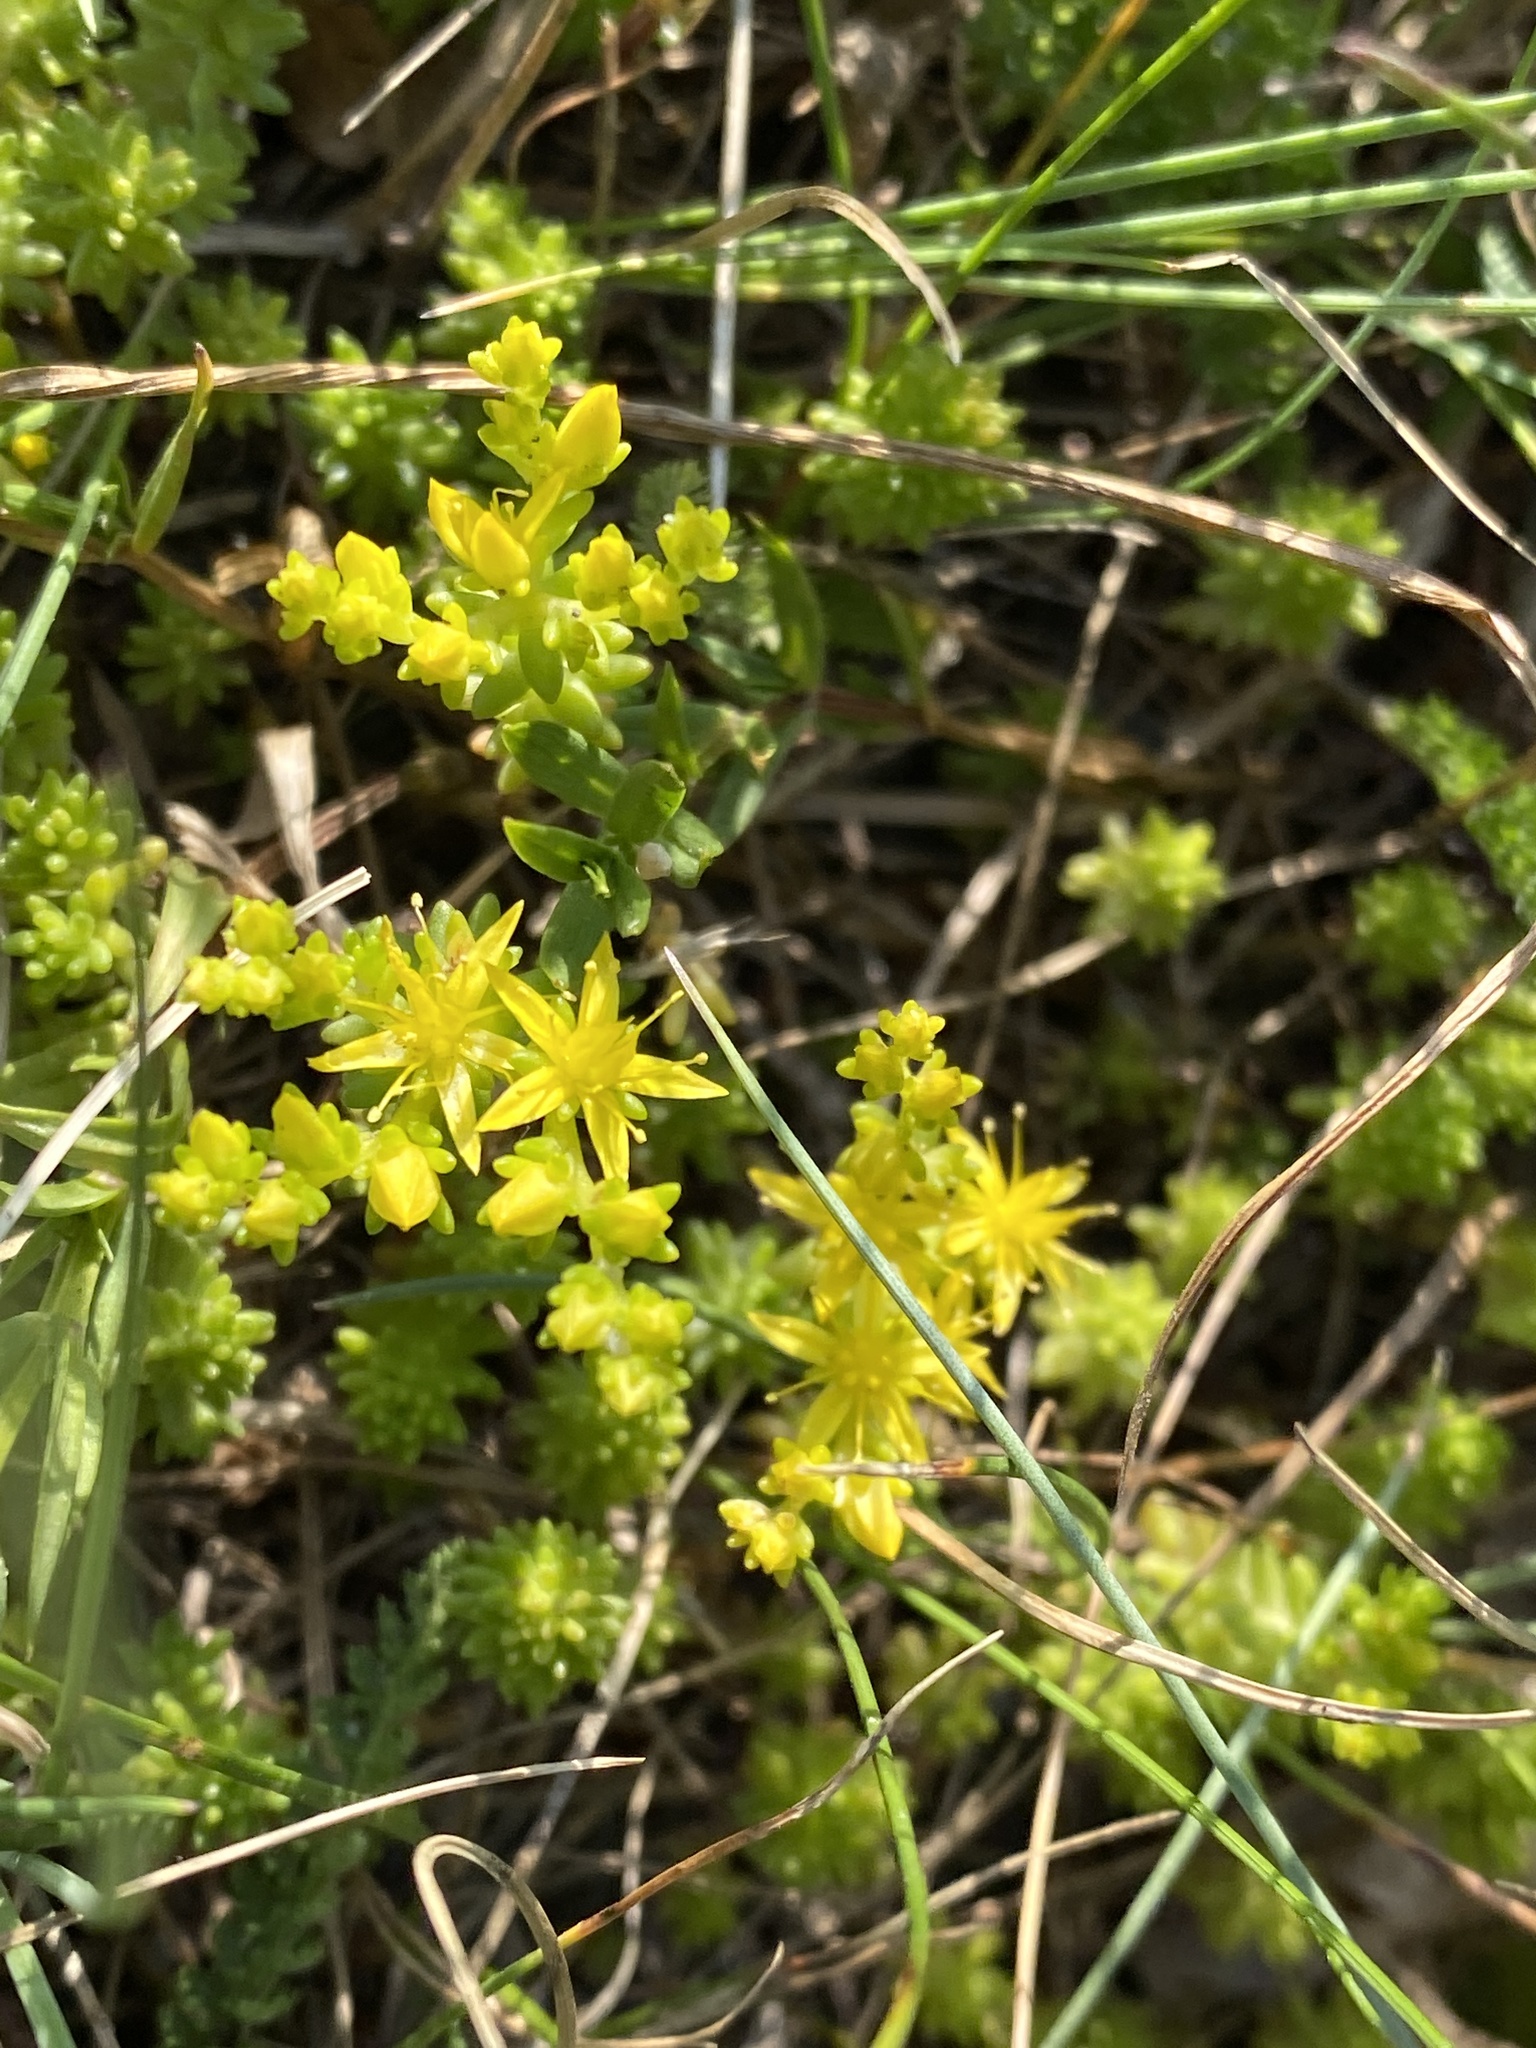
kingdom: Plantae
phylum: Tracheophyta
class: Magnoliopsida
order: Saxifragales
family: Crassulaceae
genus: Sedum
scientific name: Sedum sexangulare
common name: Tasteless stonecrop
